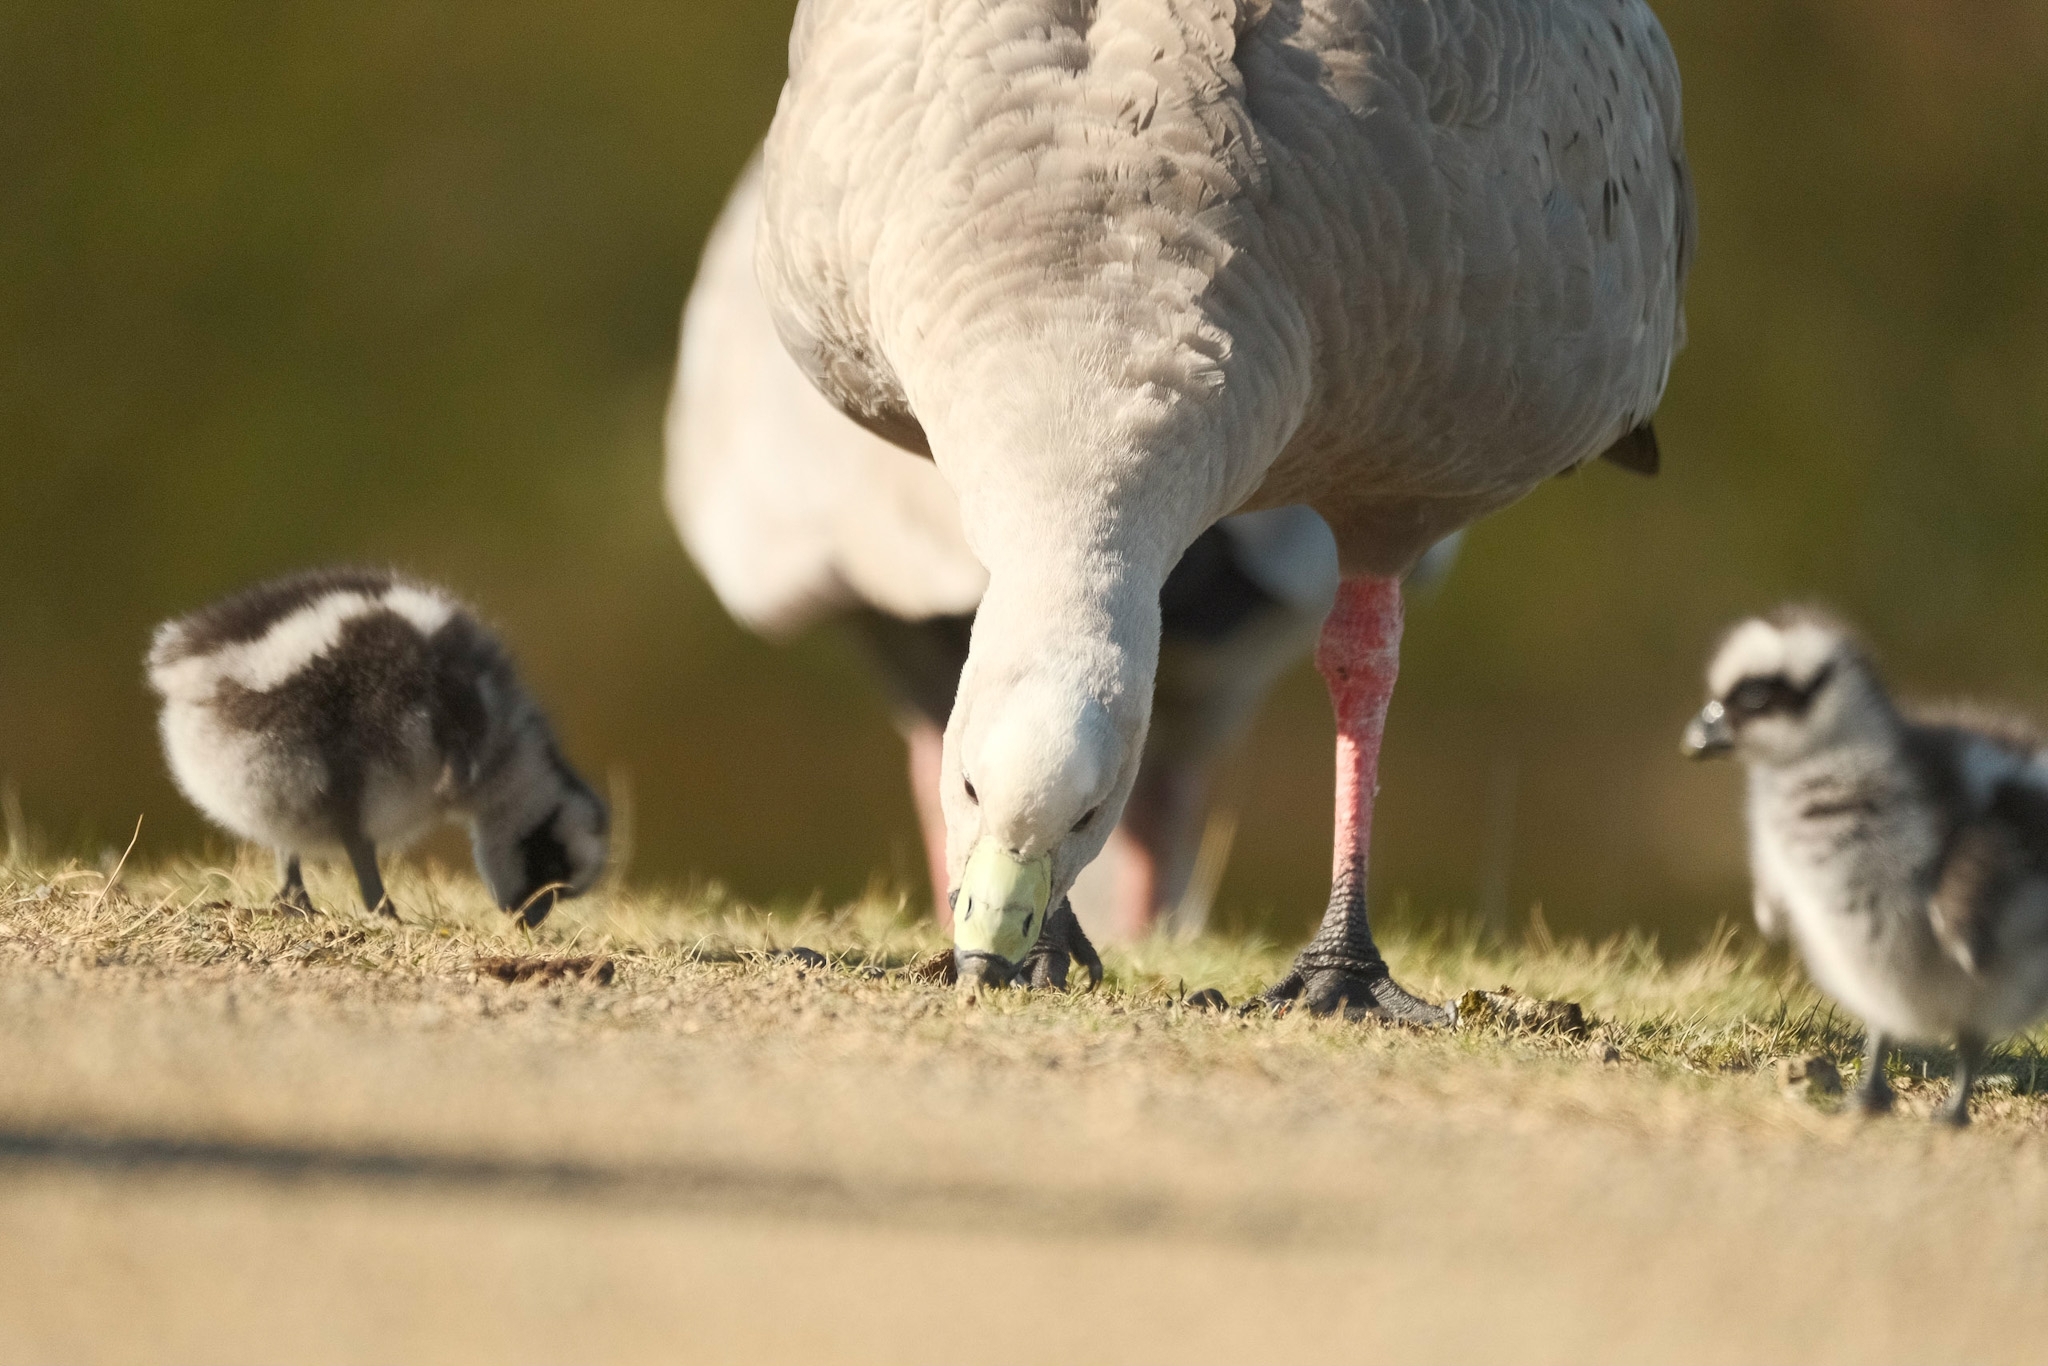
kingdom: Animalia
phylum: Chordata
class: Aves
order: Anseriformes
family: Anatidae
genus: Cereopsis
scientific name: Cereopsis novaehollandiae
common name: Cape barren goose
